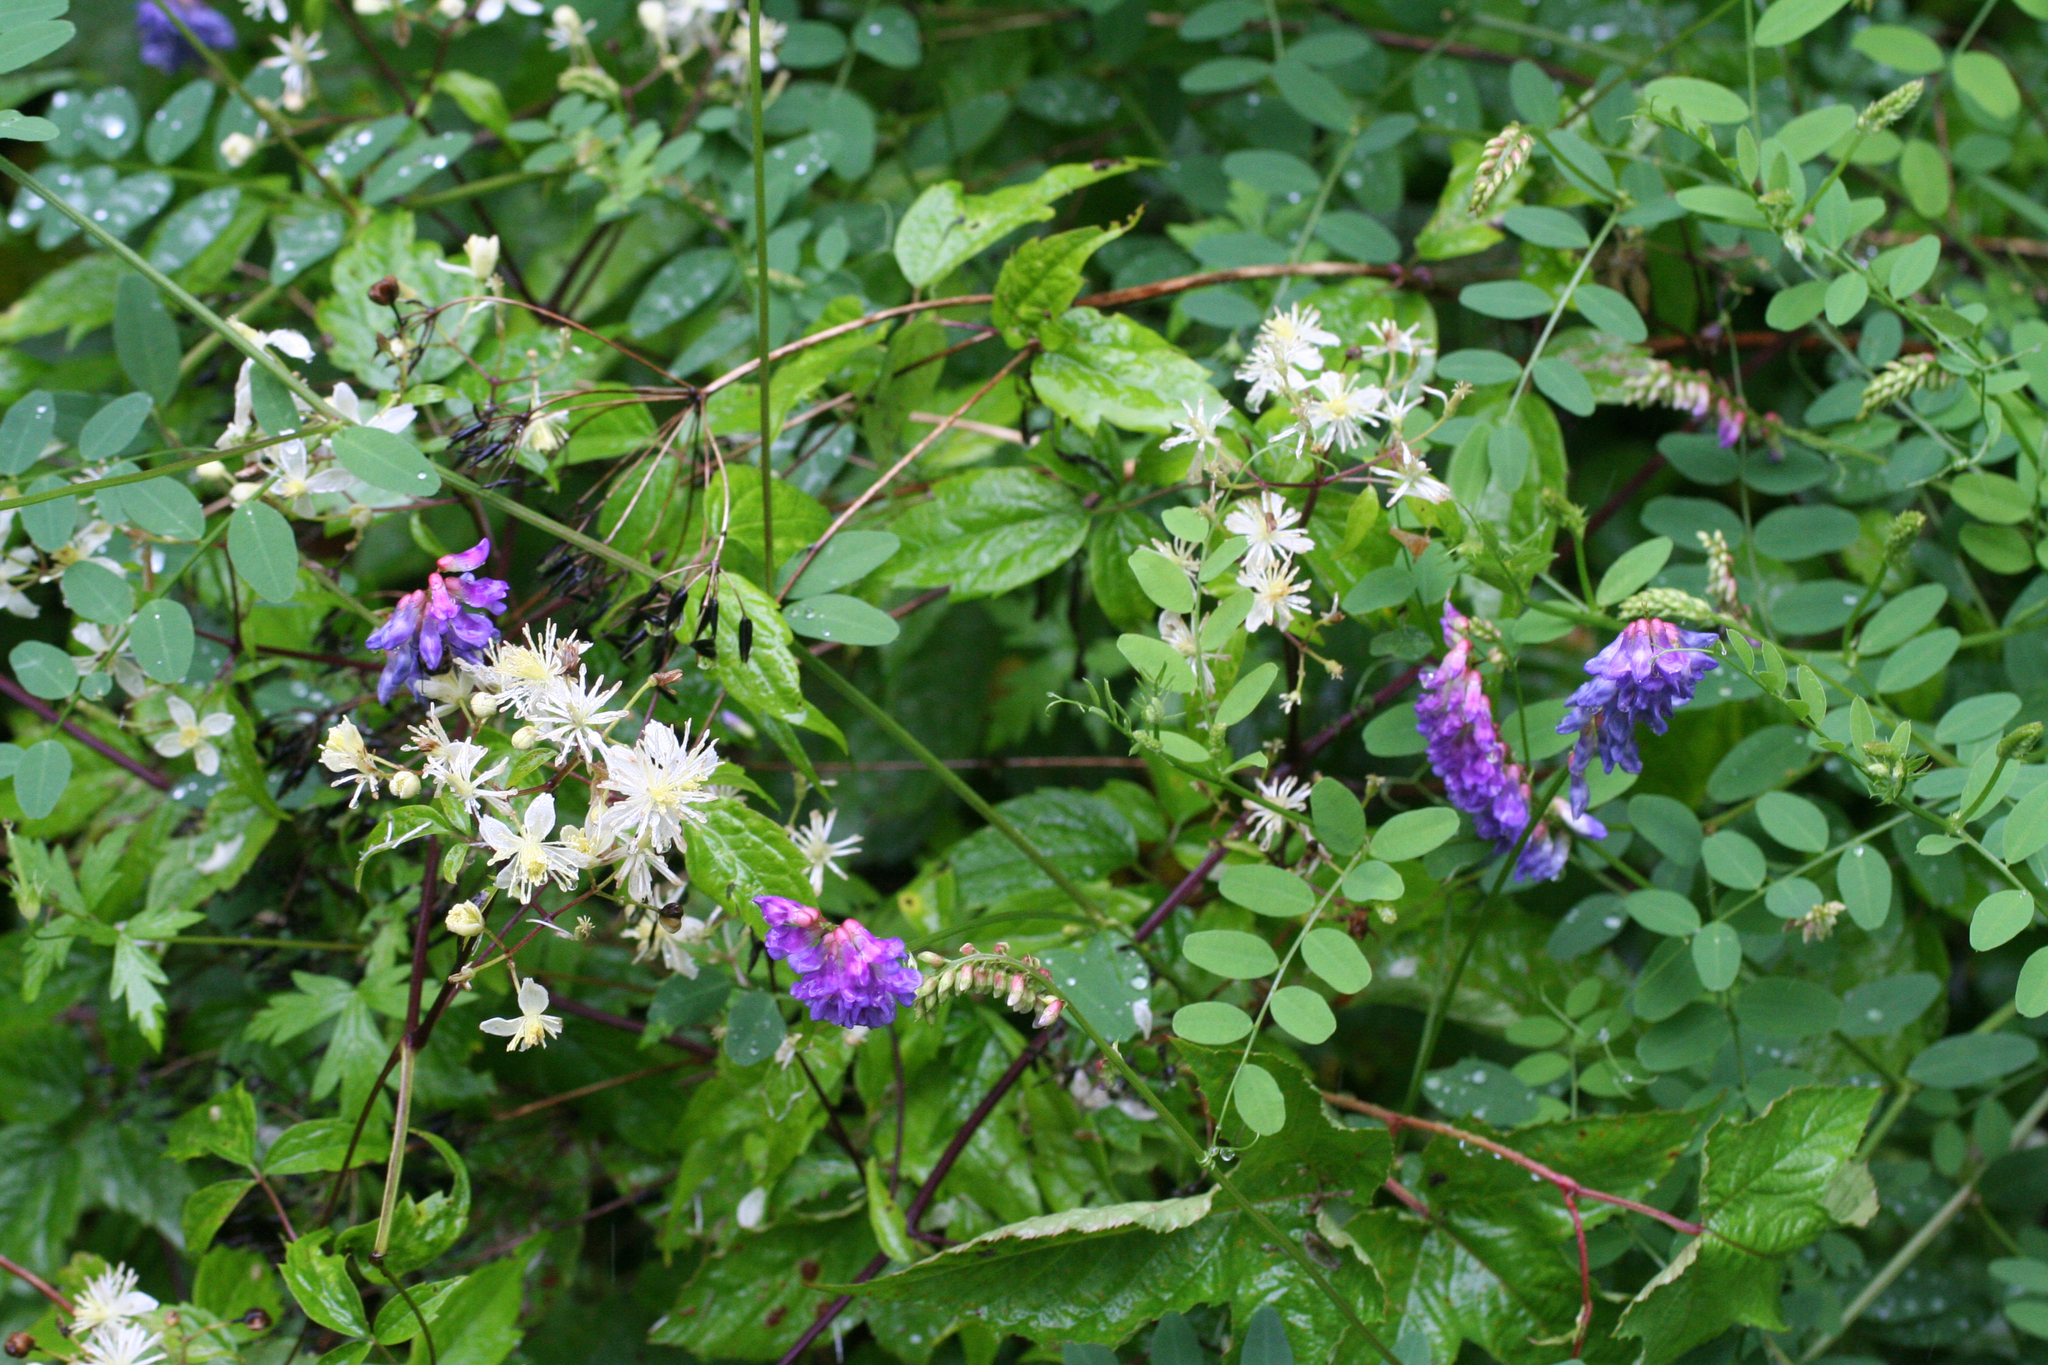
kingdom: Plantae
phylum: Tracheophyta
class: Magnoliopsida
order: Ranunculales
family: Ranunculaceae
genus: Clematis
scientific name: Clematis brevicaudata
